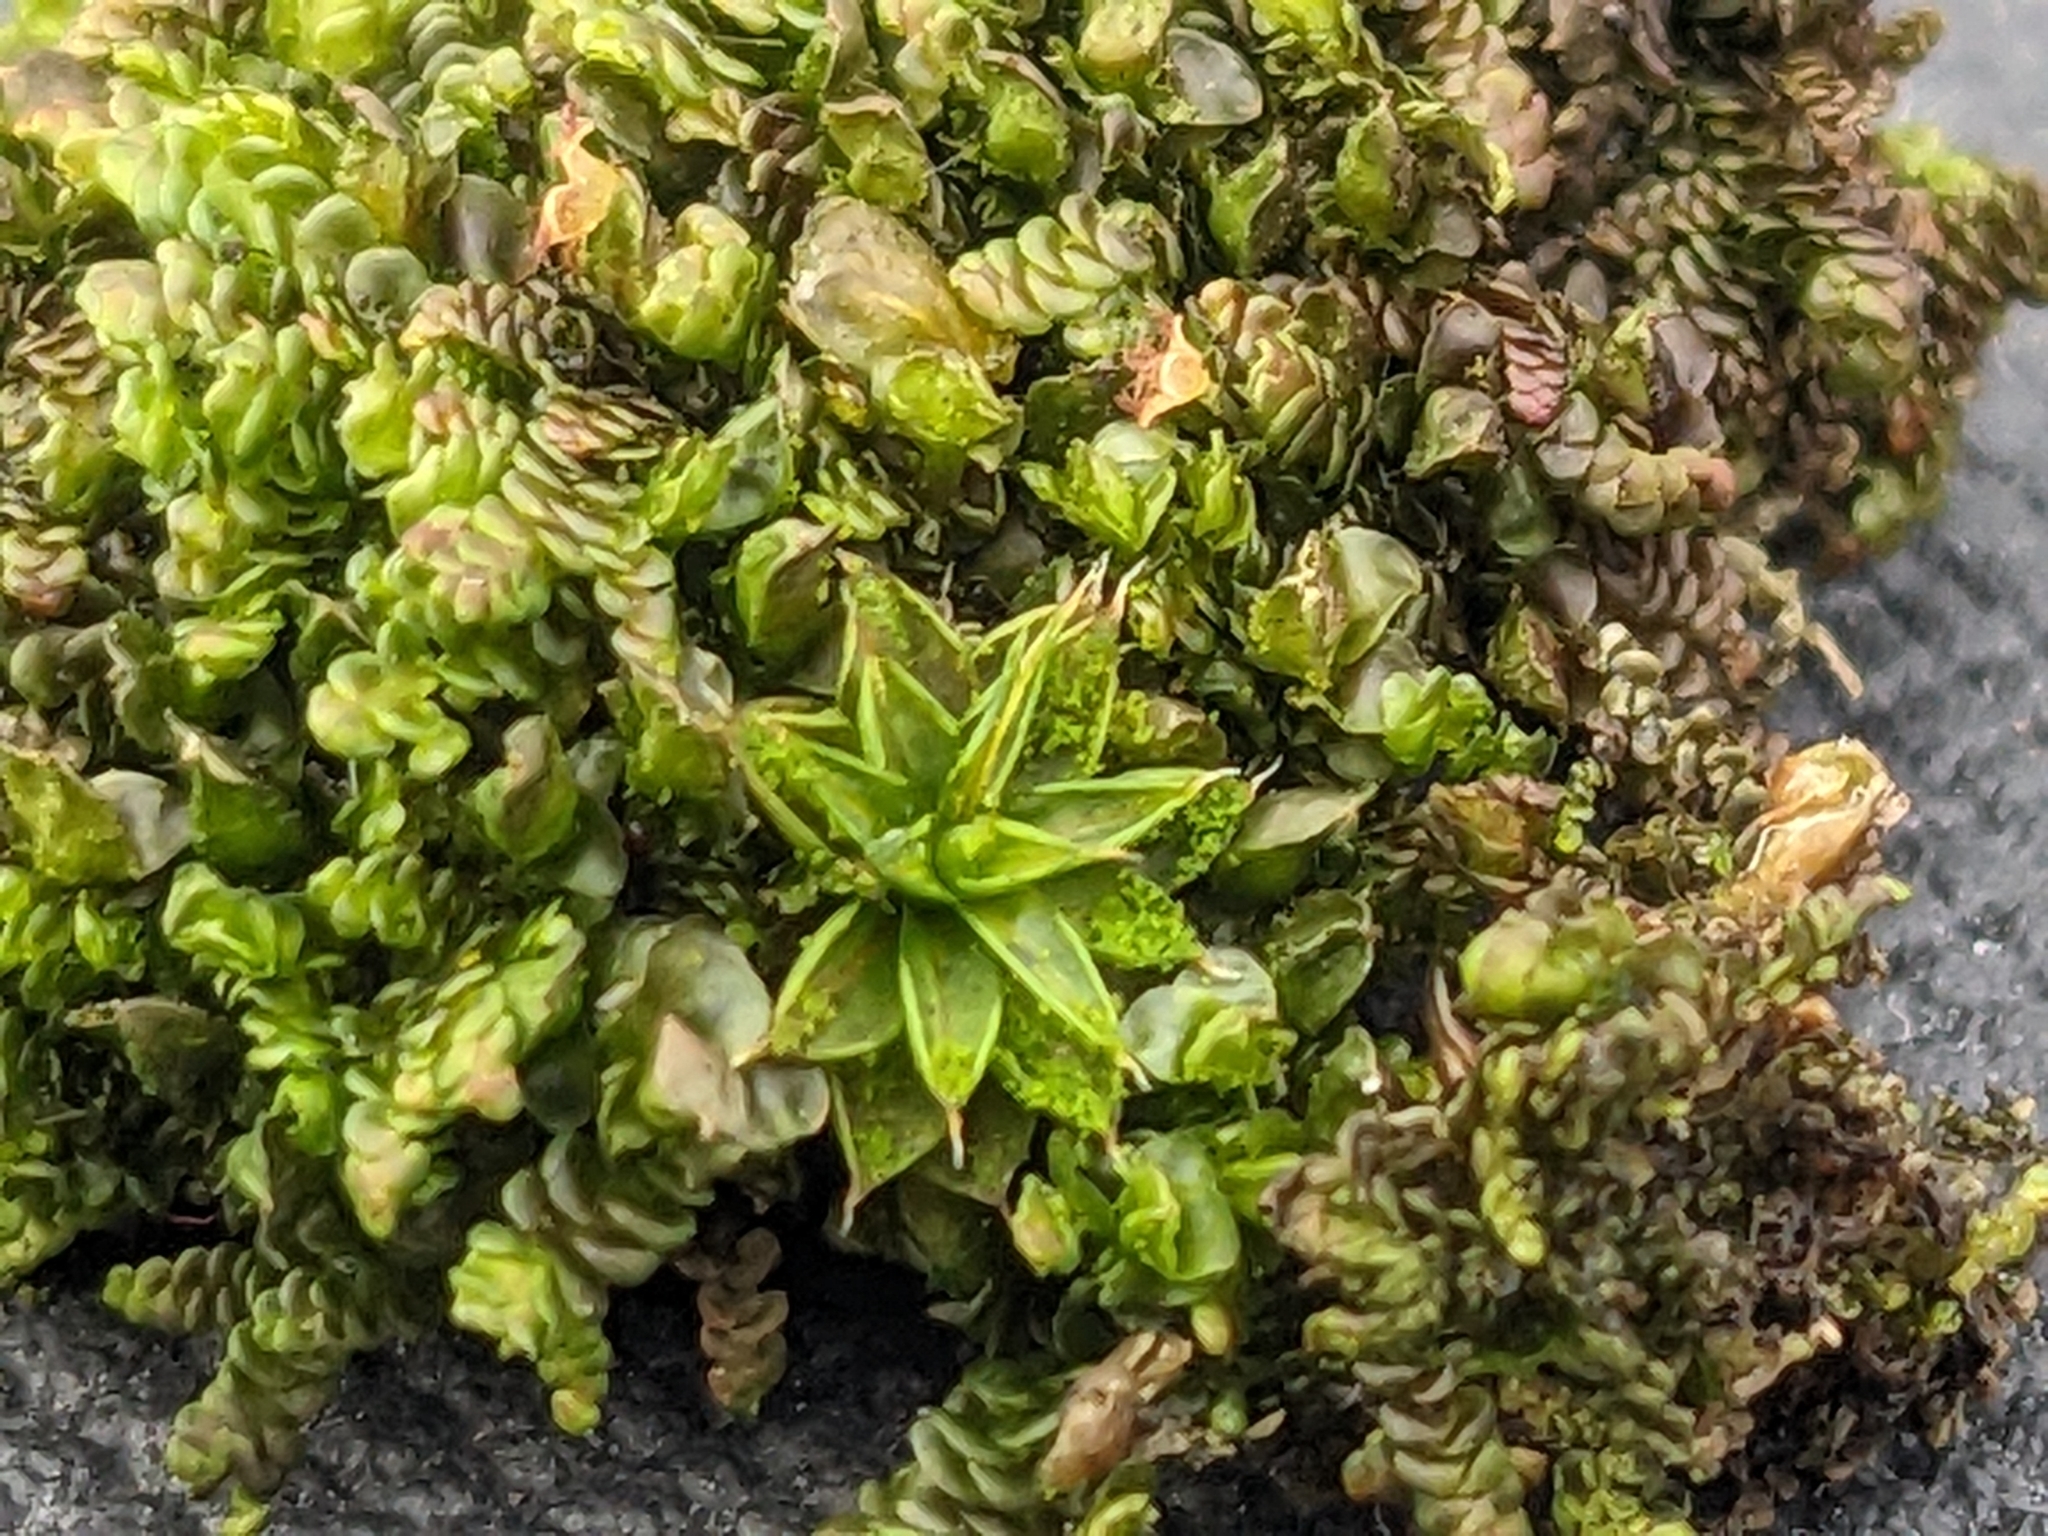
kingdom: Plantae
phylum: Bryophyta
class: Bryopsida
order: Pottiales
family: Pottiaceae
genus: Syntrichia
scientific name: Syntrichia papillosa
